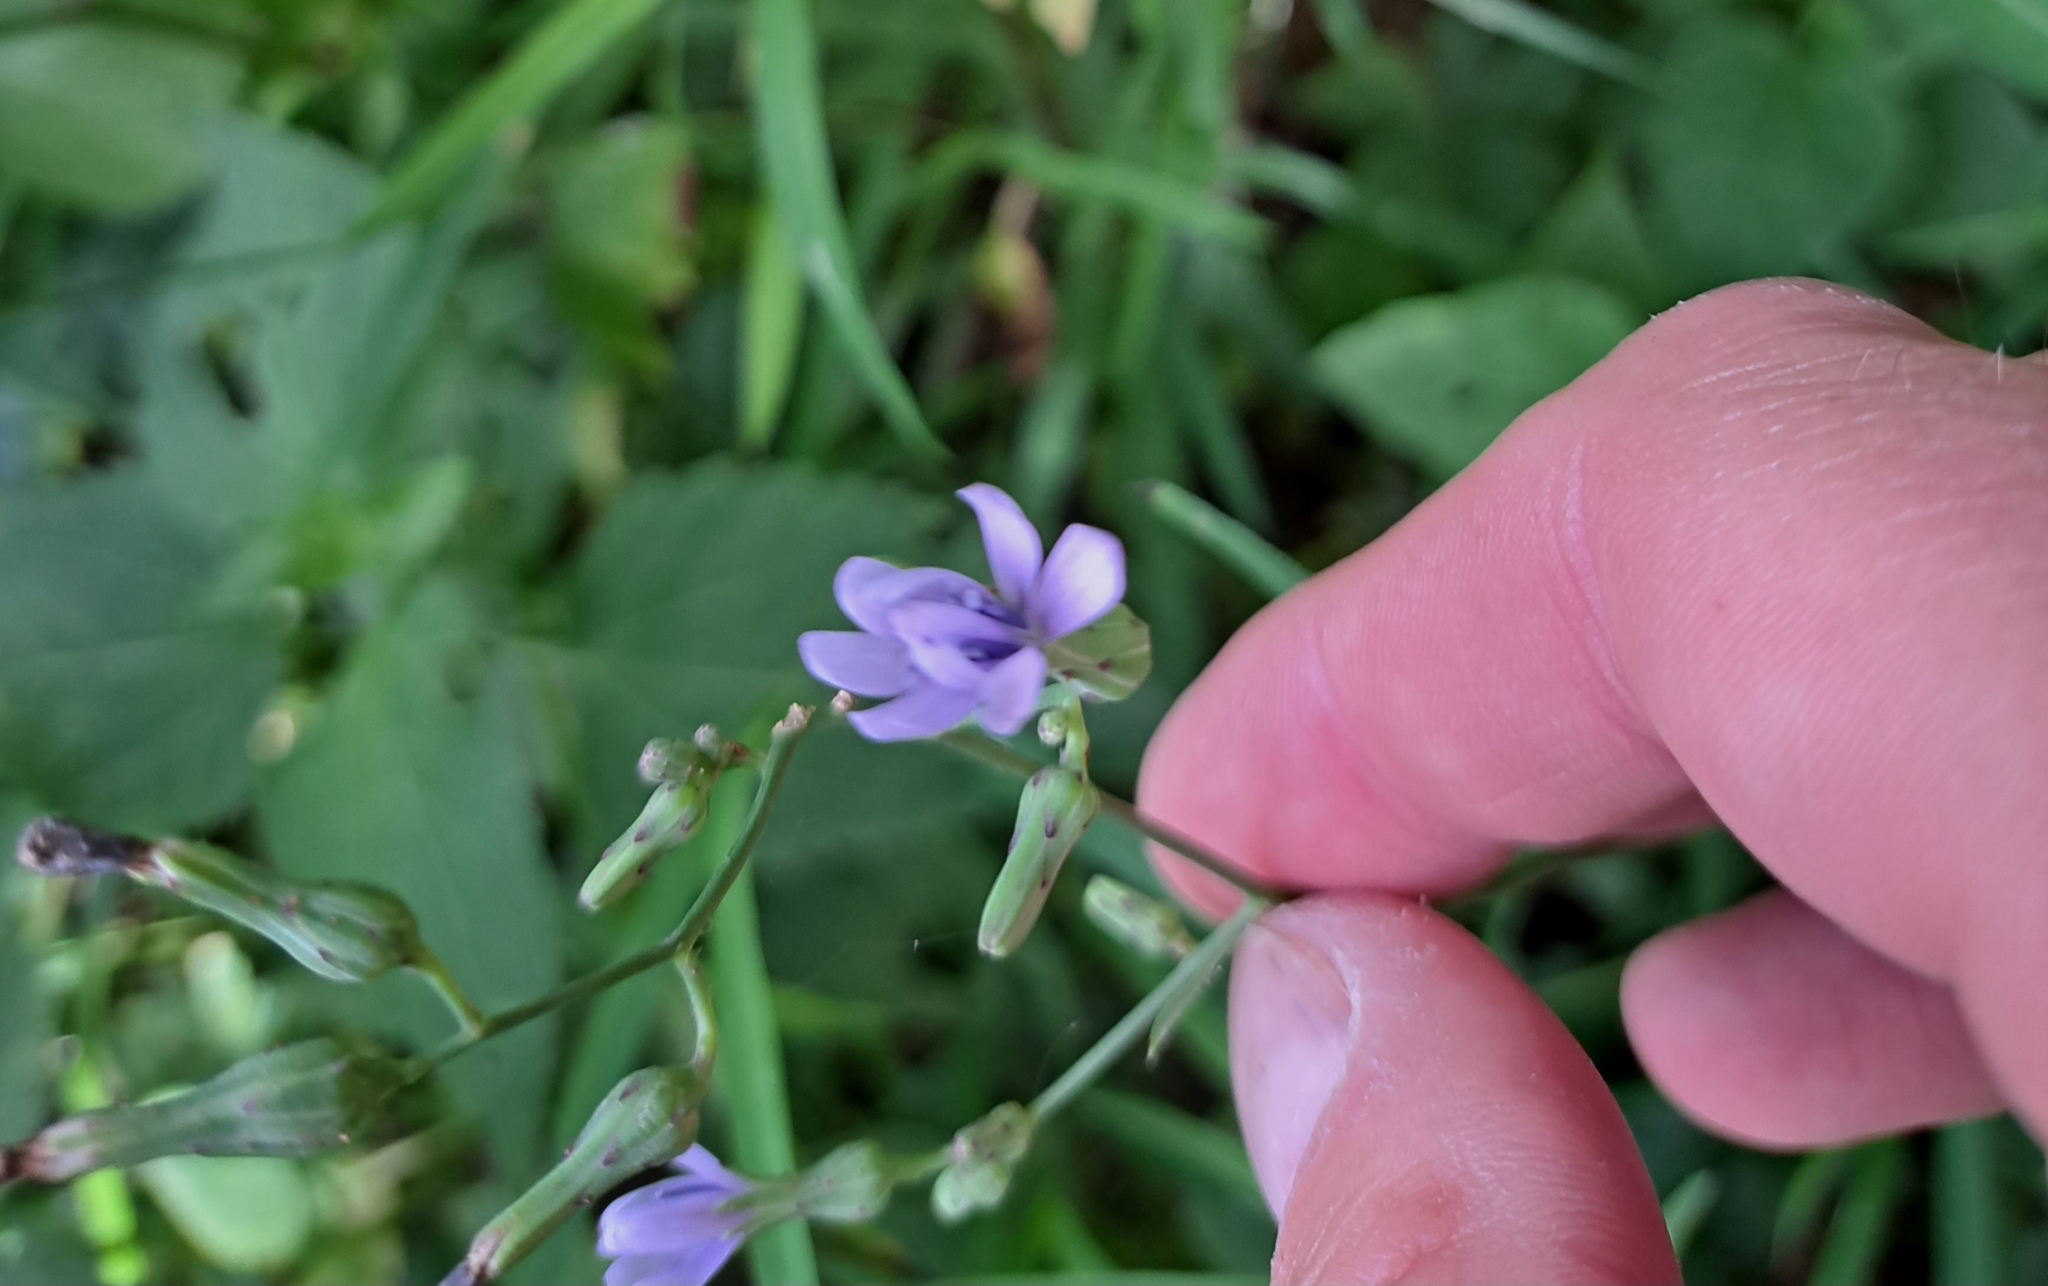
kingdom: Plantae
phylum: Tracheophyta
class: Magnoliopsida
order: Asterales
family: Asteraceae
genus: Lactuca
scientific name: Lactuca floridana
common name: Woodland lettuce
